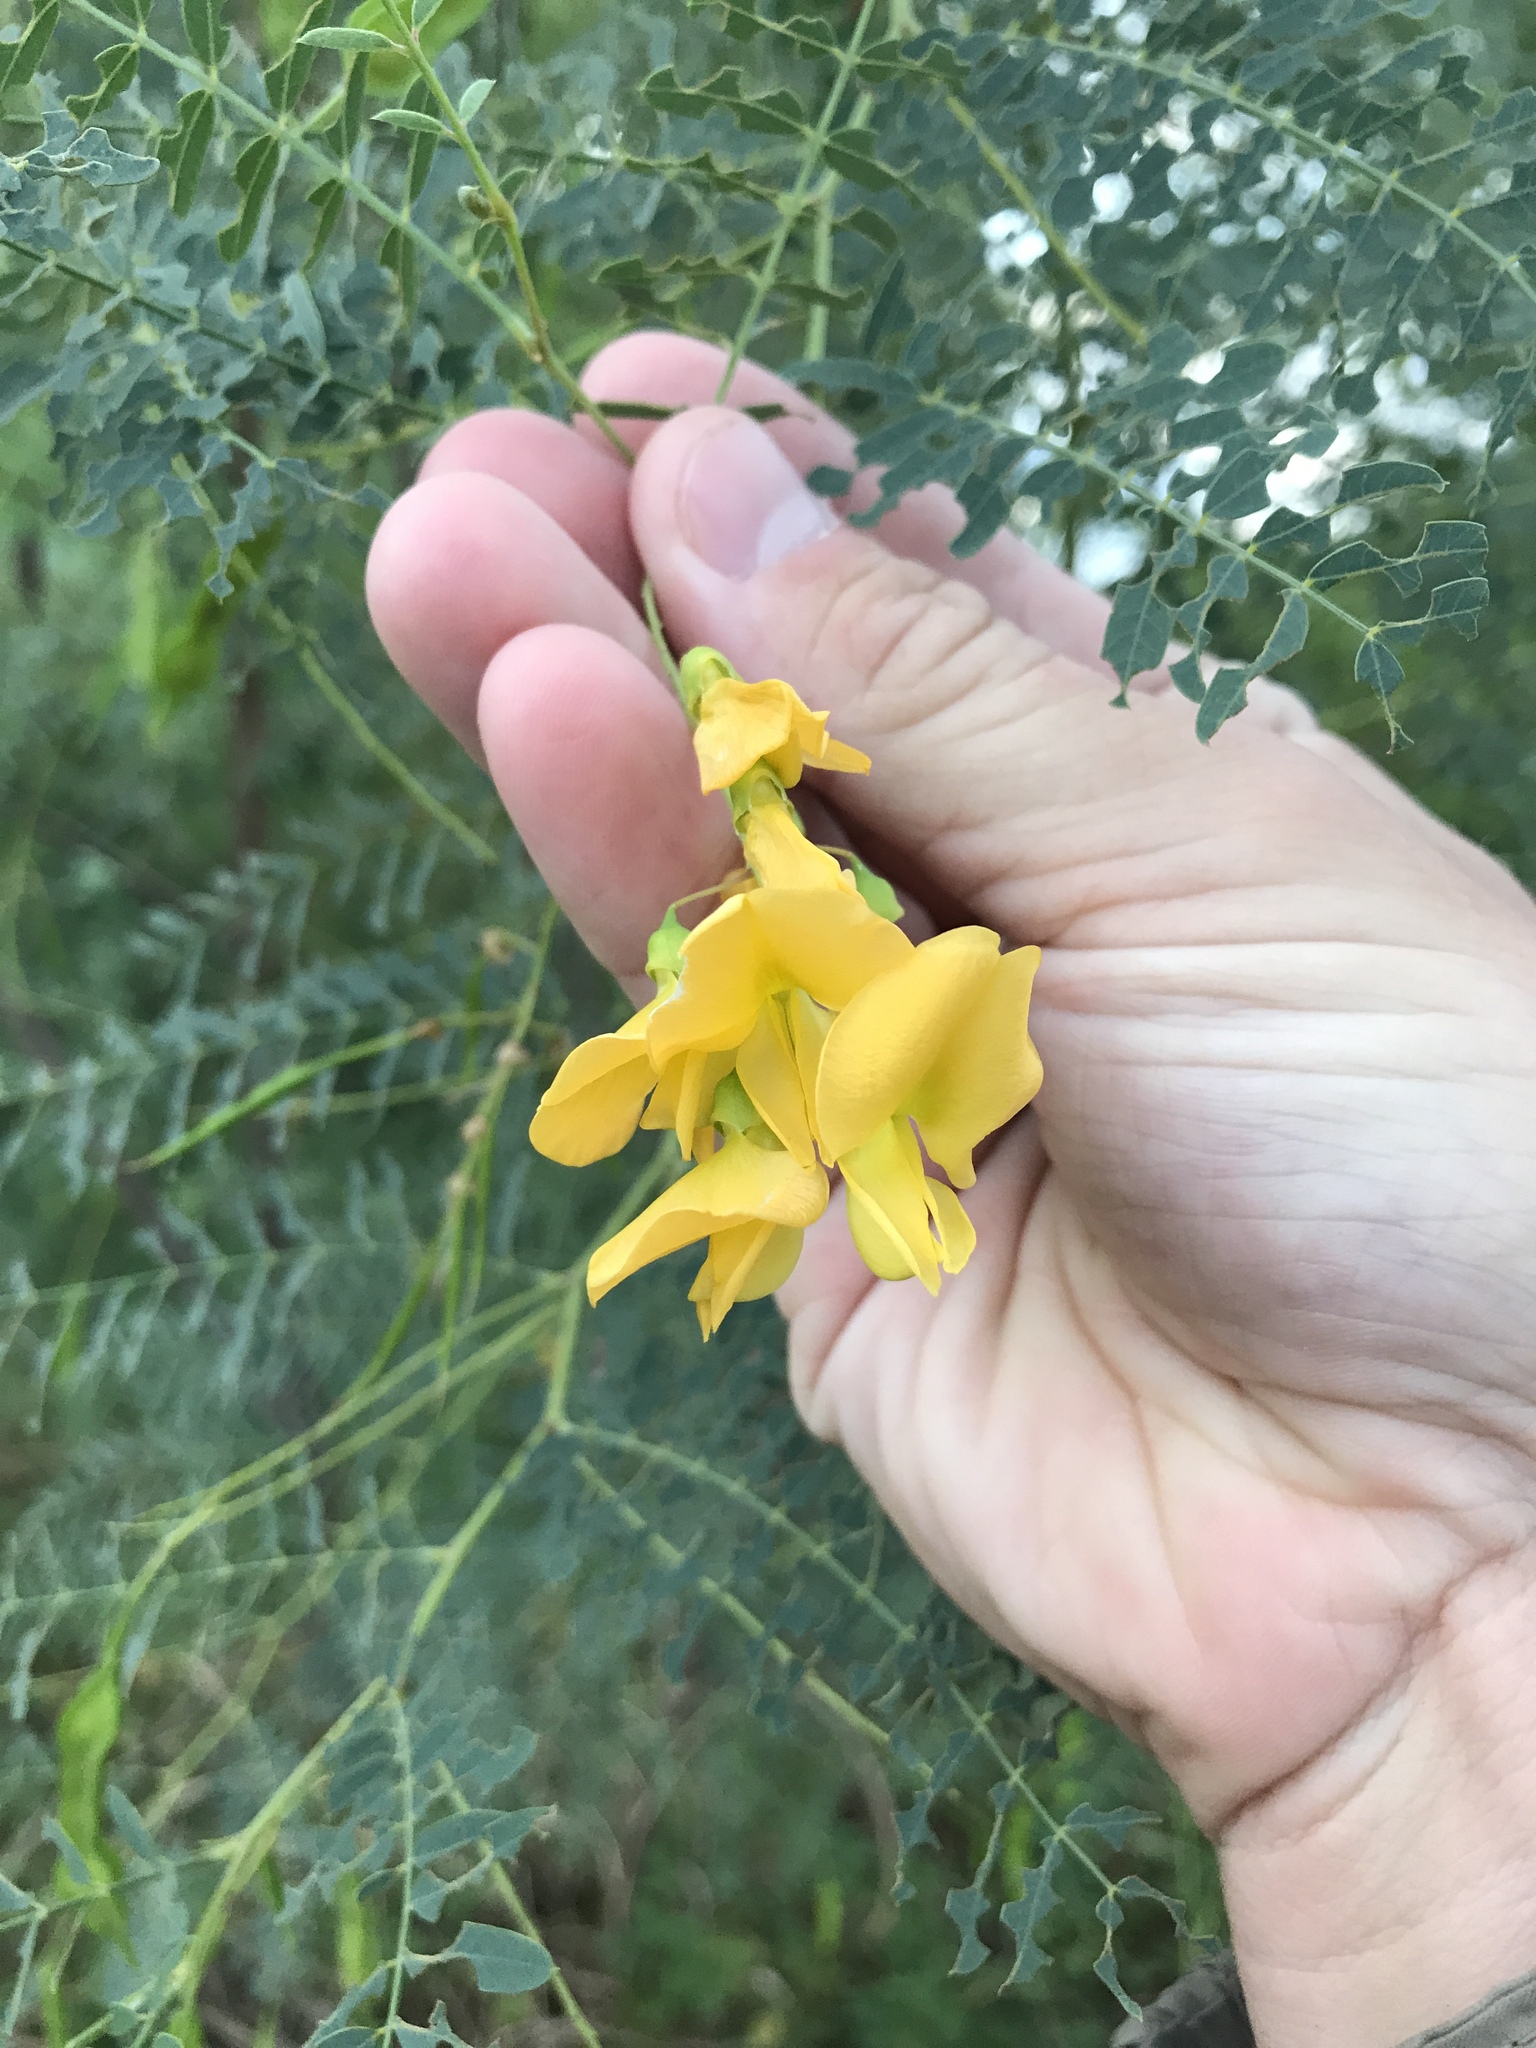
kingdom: Plantae
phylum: Tracheophyta
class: Magnoliopsida
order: Fabales
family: Fabaceae
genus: Sesbania
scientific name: Sesbania drummondii
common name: Poison-bean
